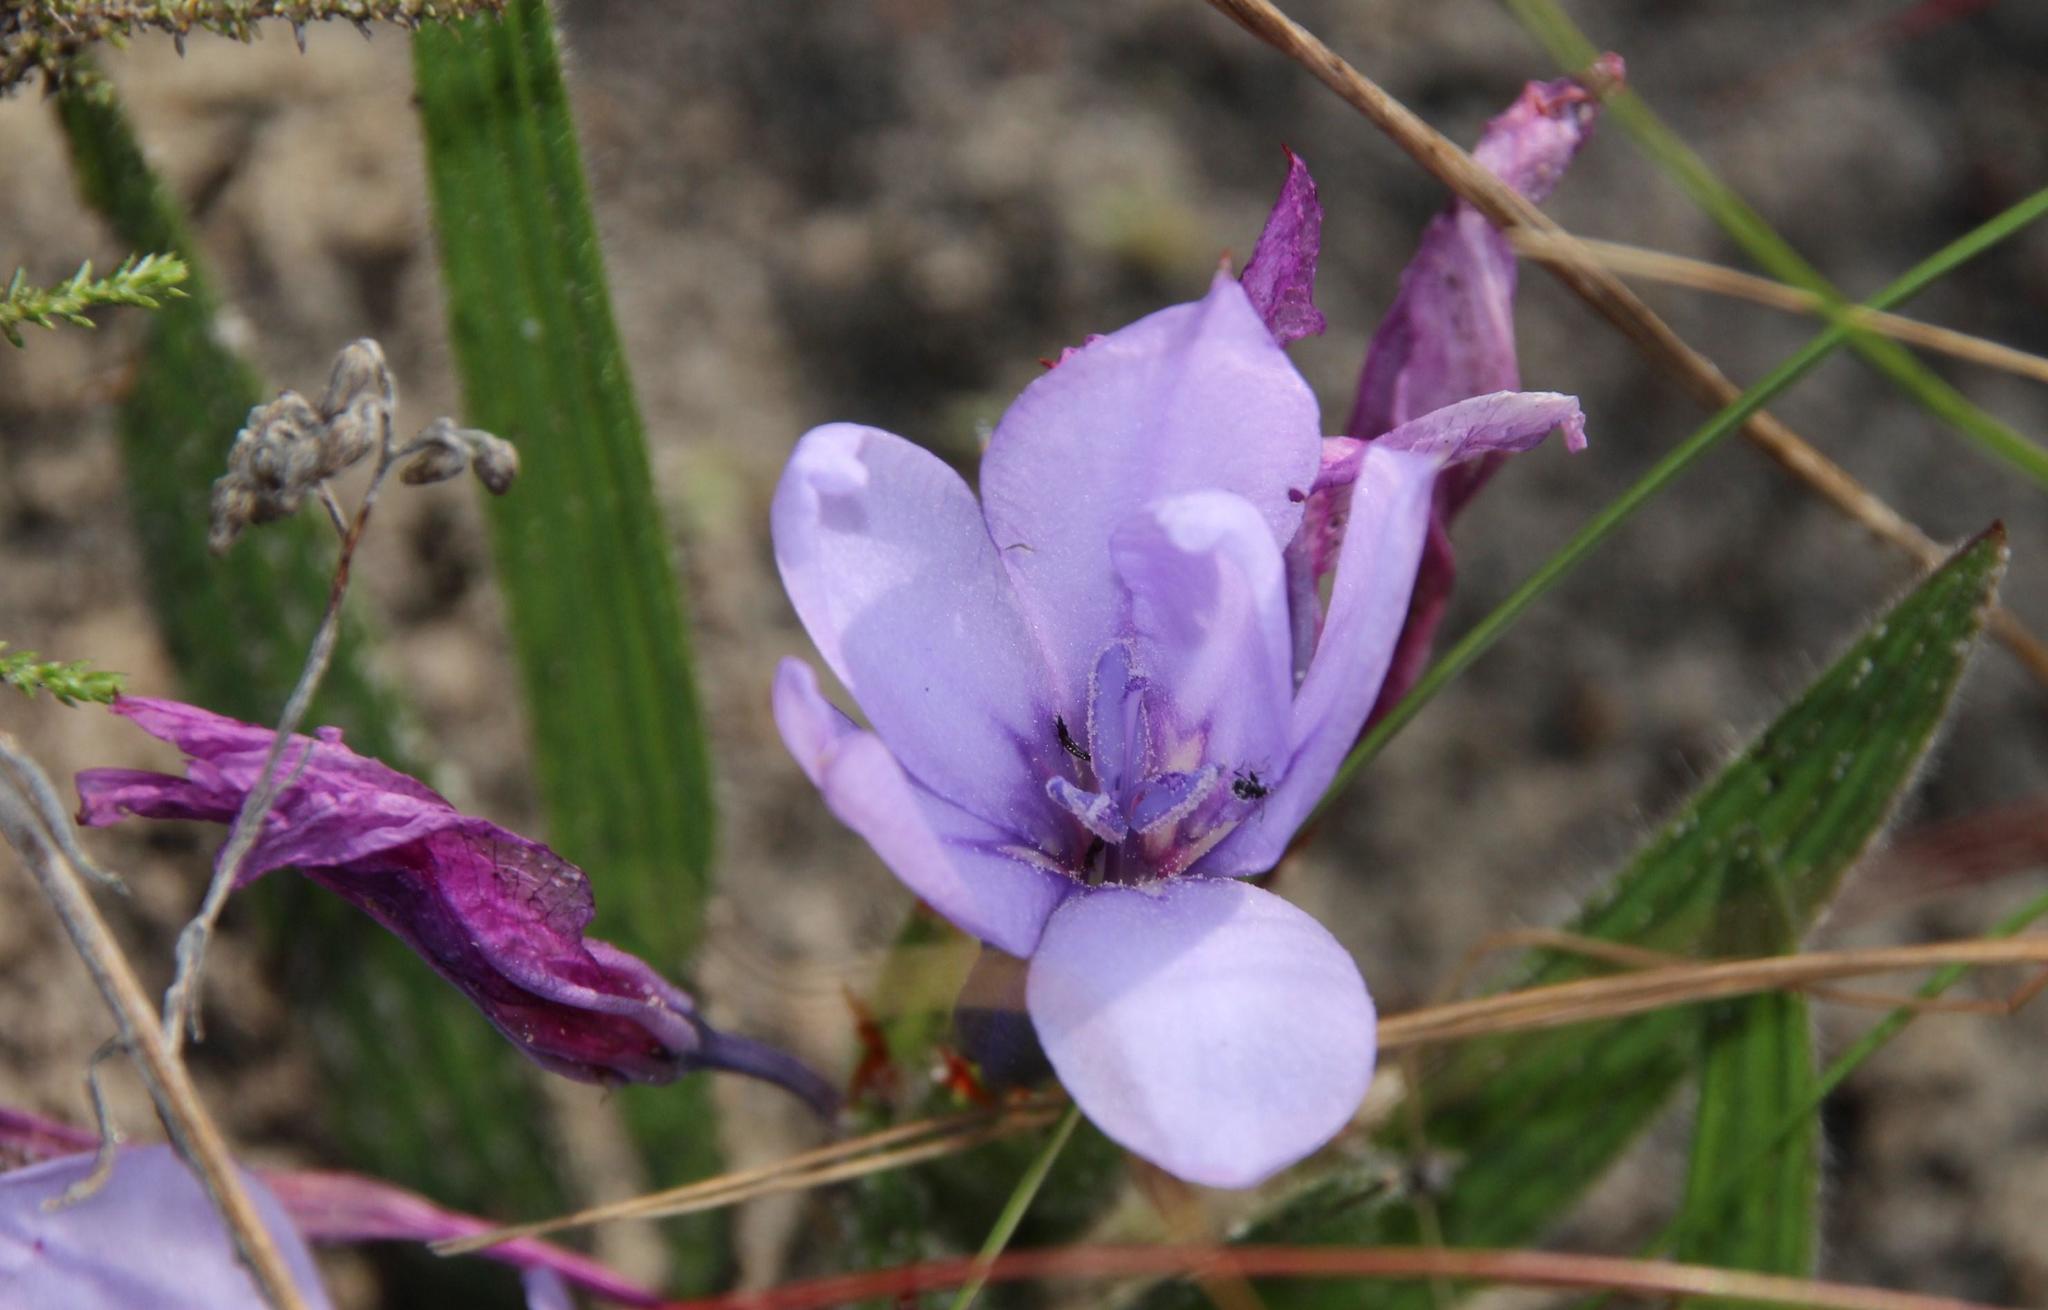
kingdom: Plantae
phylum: Tracheophyta
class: Liliopsida
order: Asparagales
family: Iridaceae
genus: Babiana
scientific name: Babiana villosula
